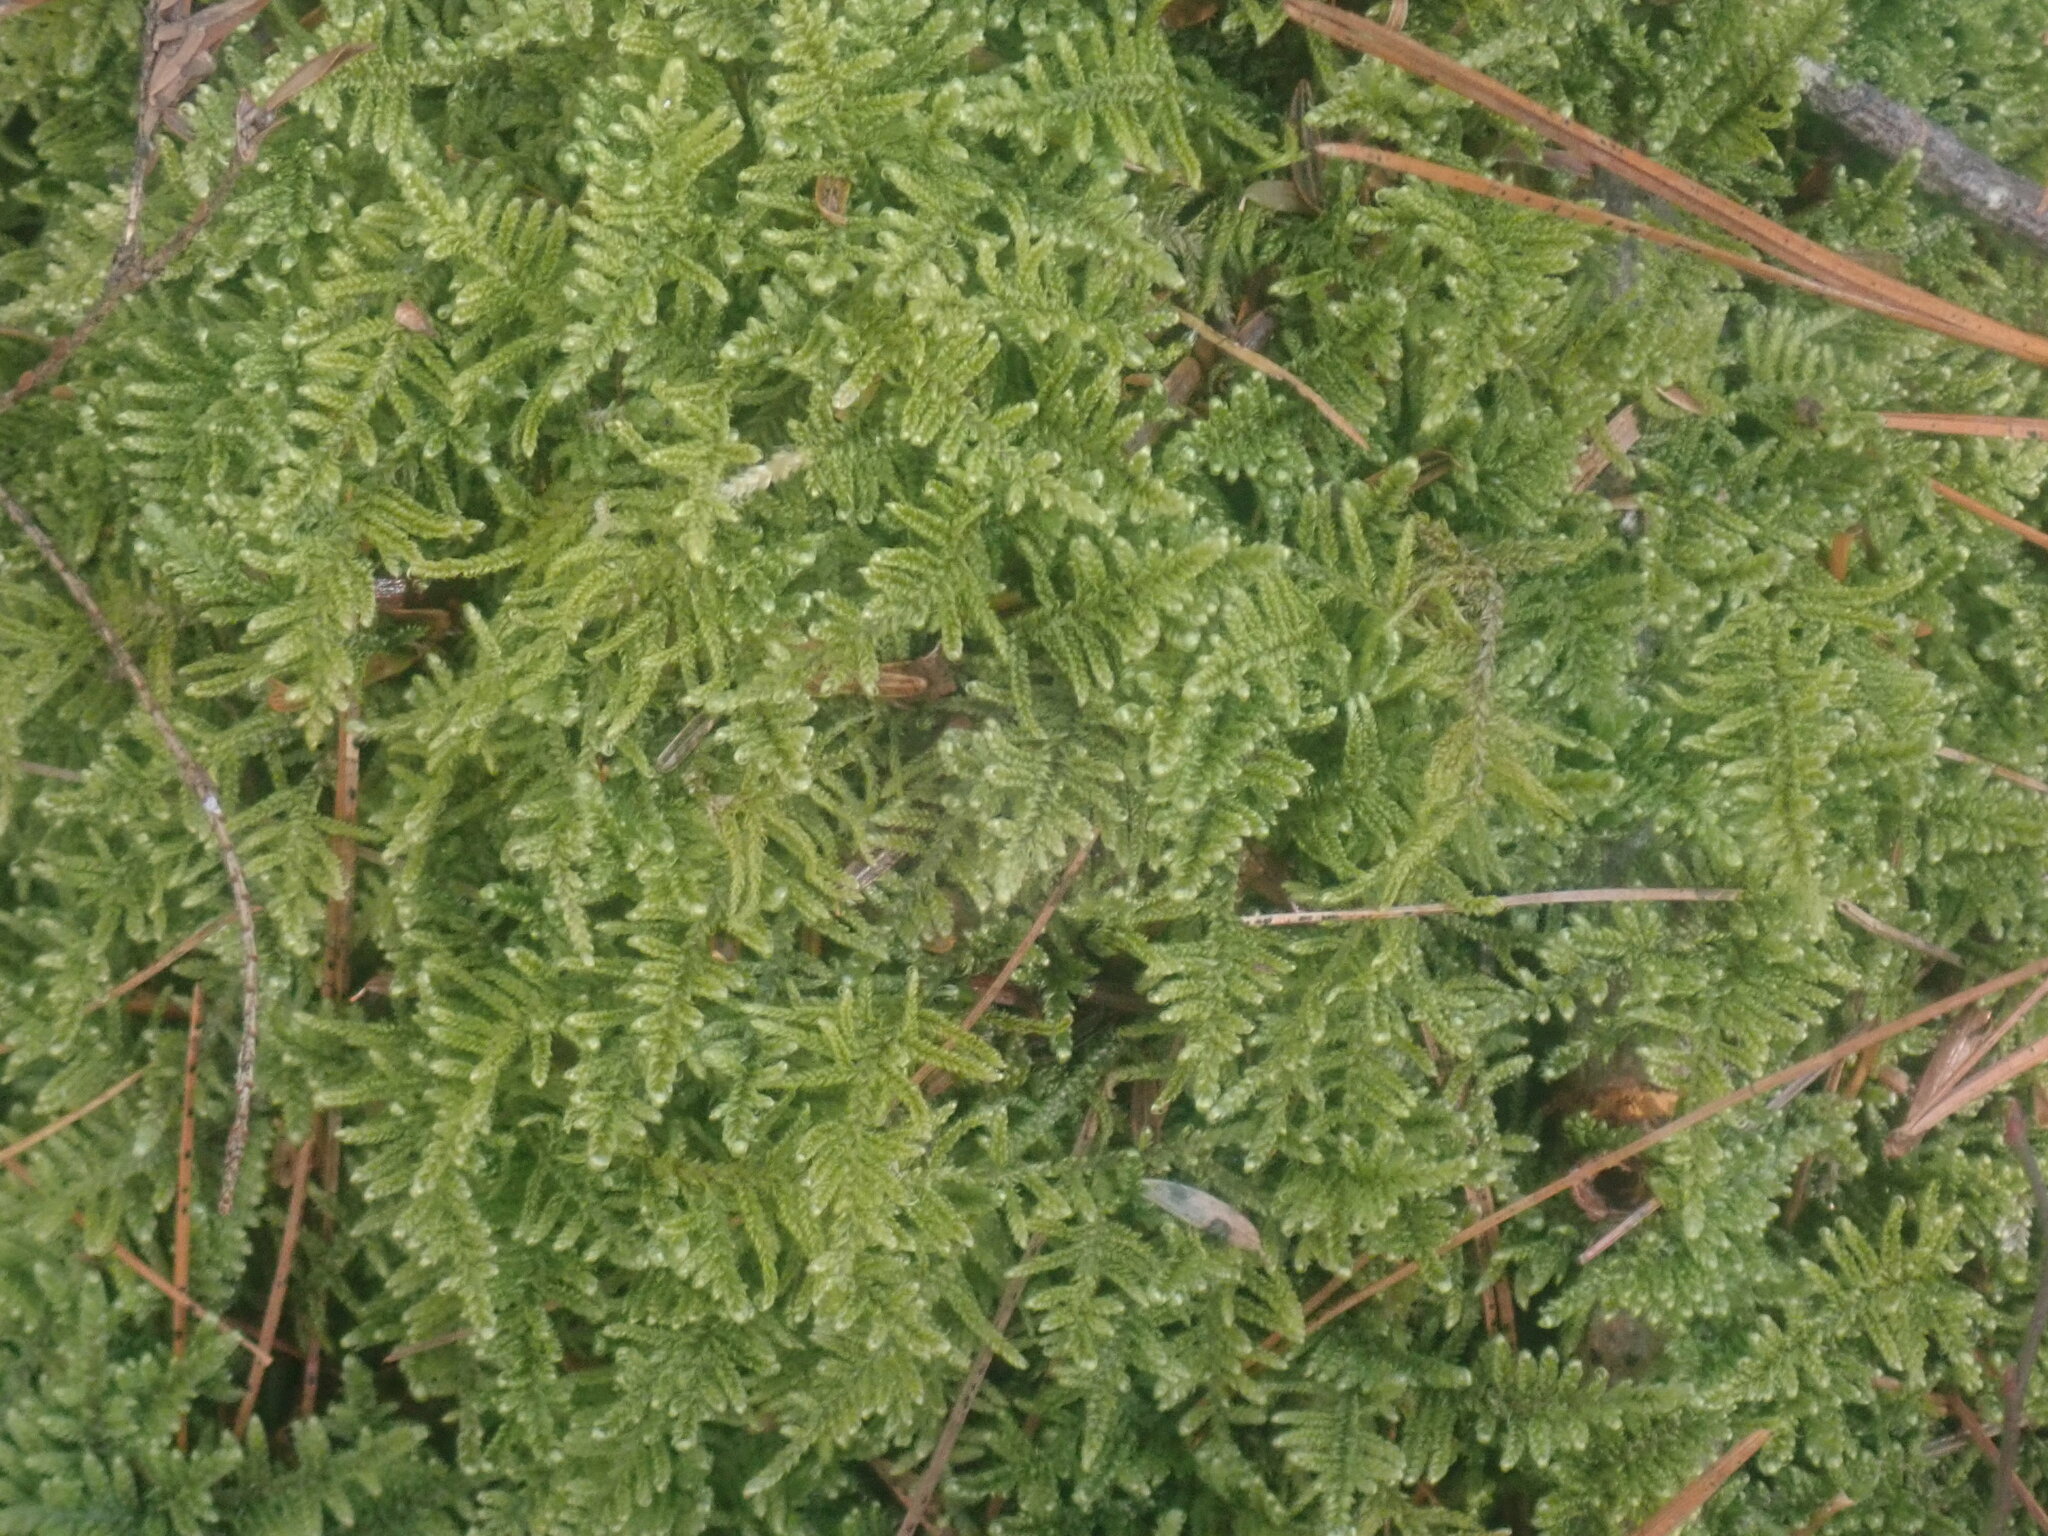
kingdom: Plantae
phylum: Bryophyta
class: Bryopsida
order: Hypnales
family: Callicladiaceae
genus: Callicladium
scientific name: Callicladium imponens
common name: Brocade moss
